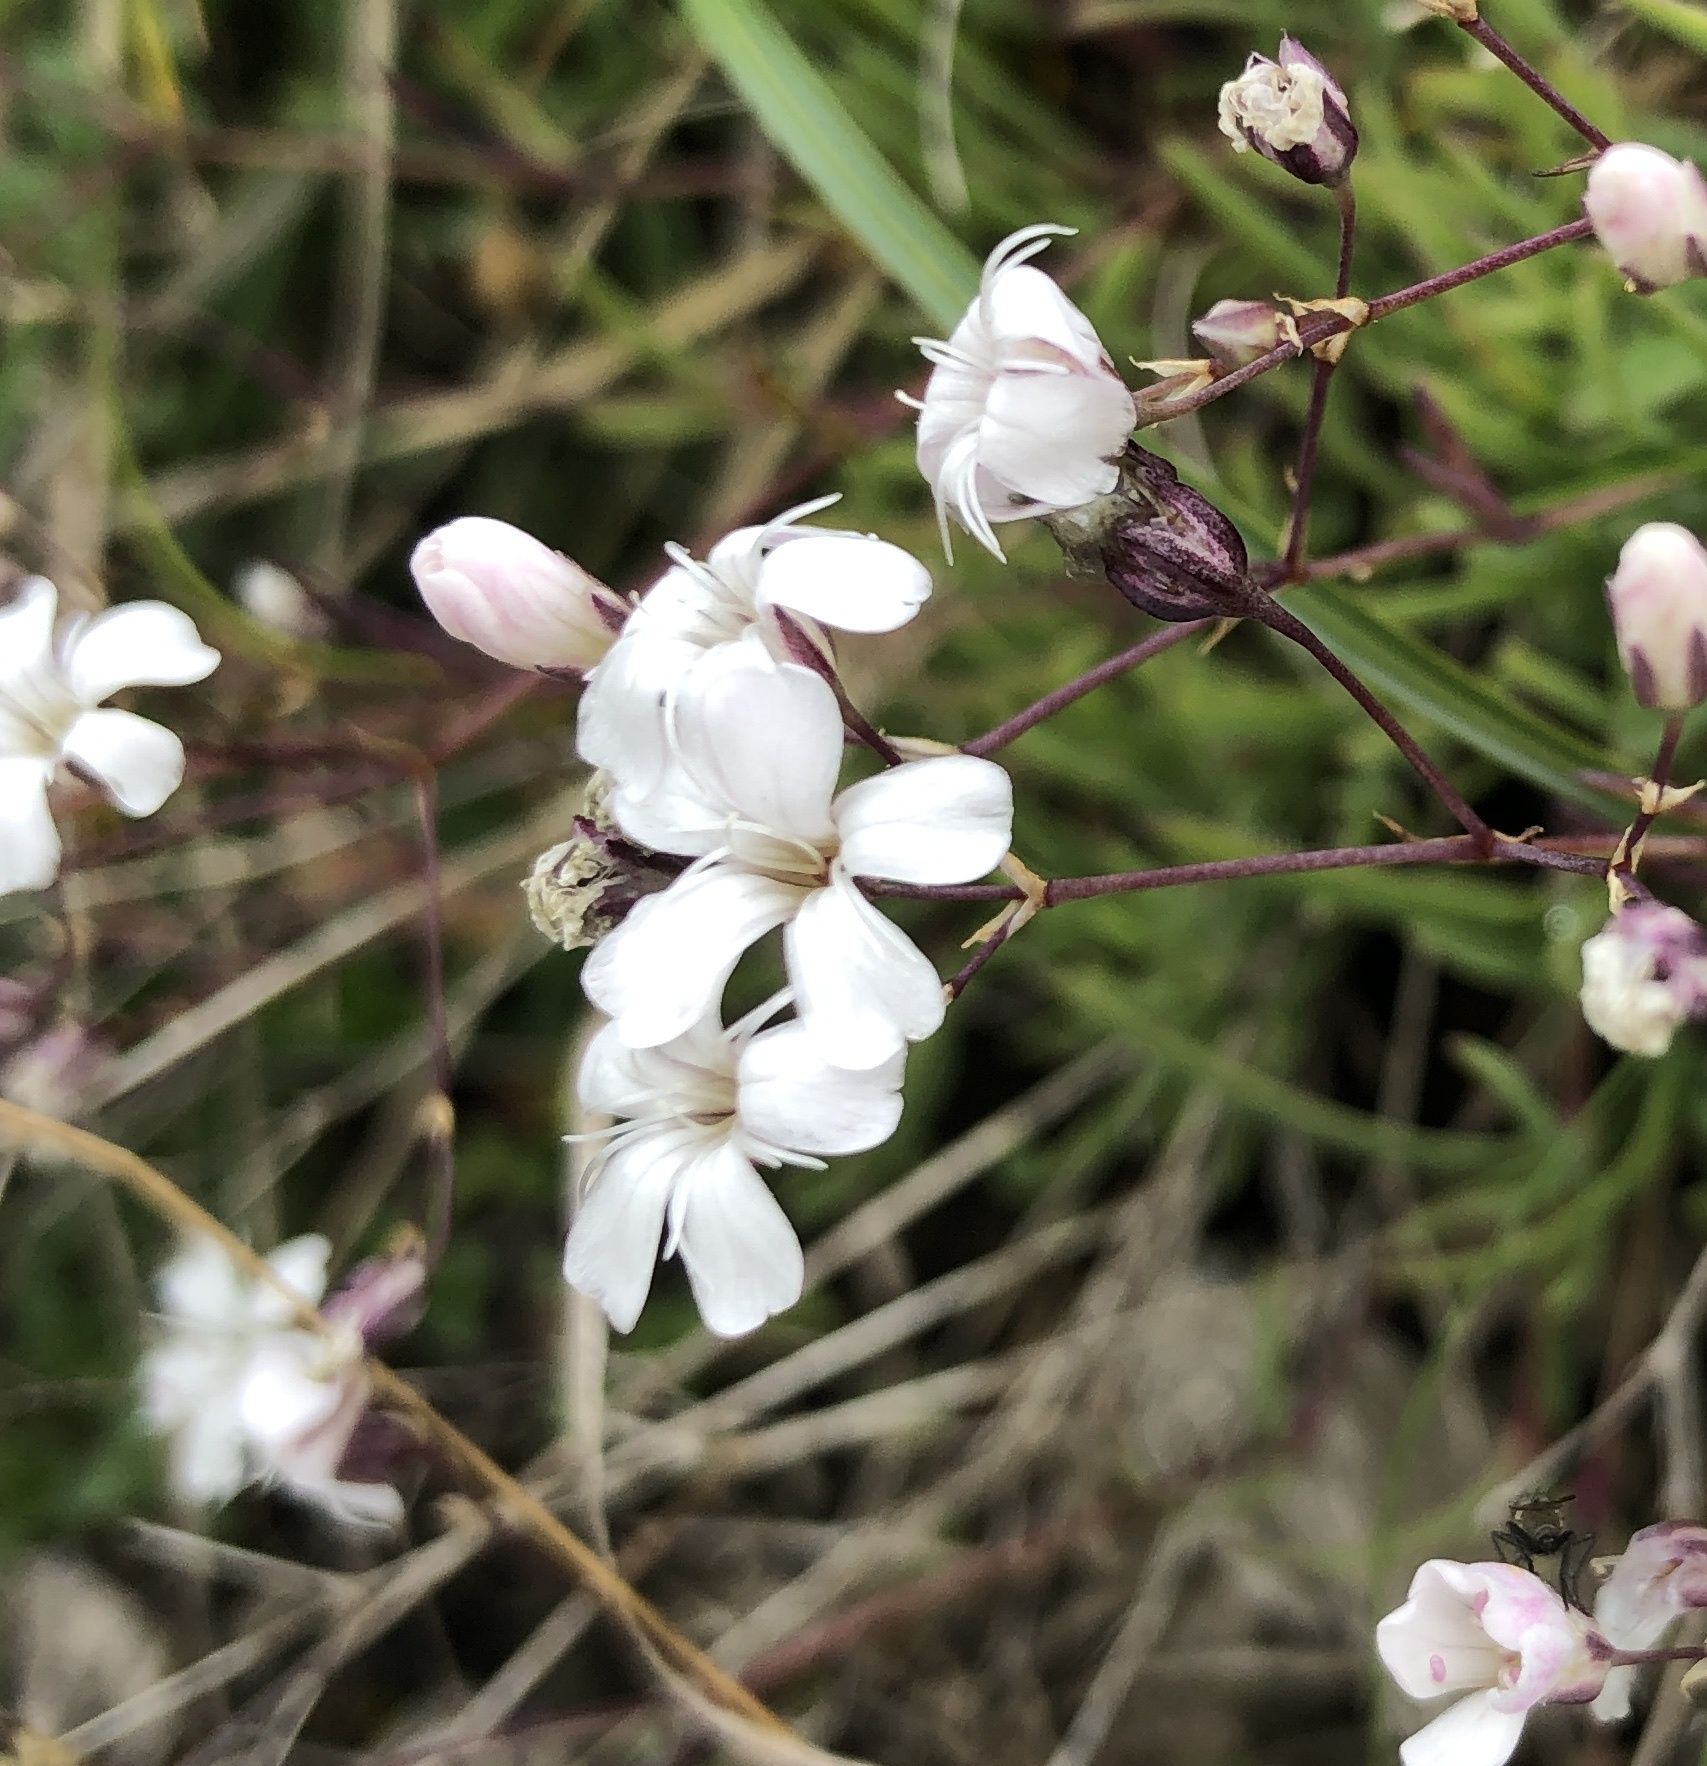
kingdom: Plantae
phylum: Tracheophyta
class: Magnoliopsida
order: Caryophyllales
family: Caryophyllaceae
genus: Gypsophila
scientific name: Gypsophila repens
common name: Creeping baby's-breath
